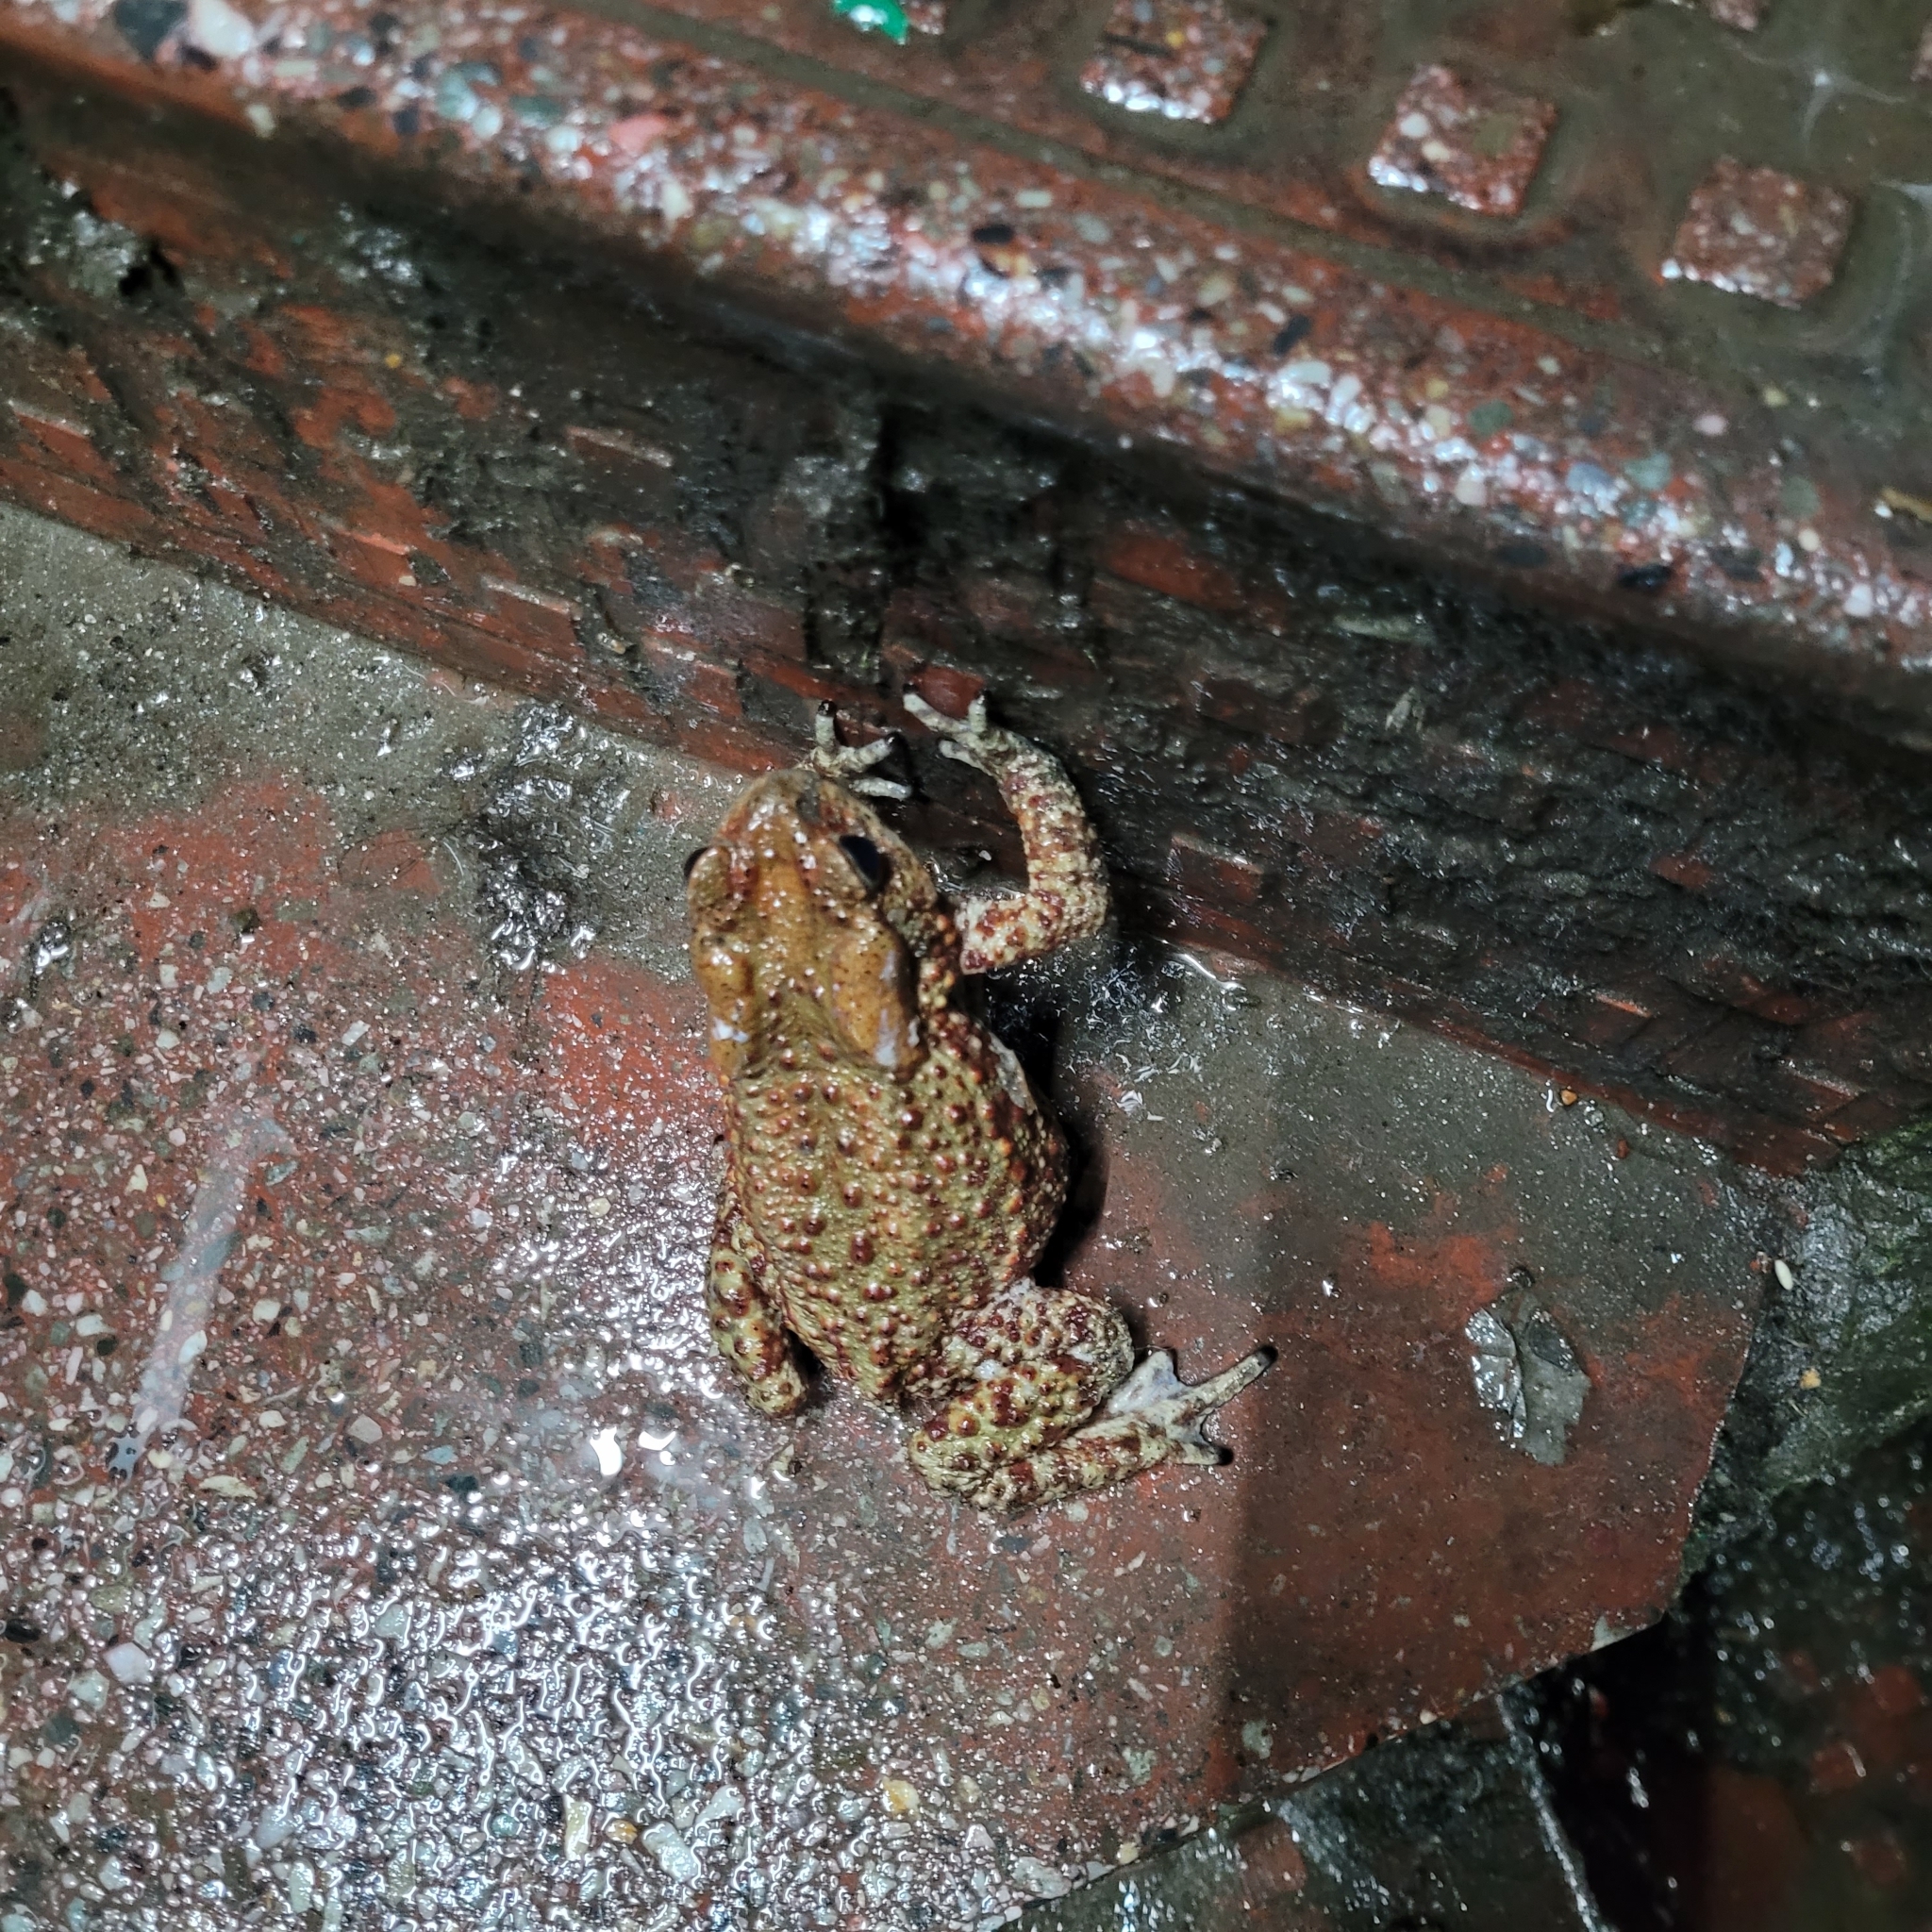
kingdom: Animalia
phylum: Chordata
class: Amphibia
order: Anura
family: Bufonidae
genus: Duttaphrynus
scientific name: Duttaphrynus melanostictus
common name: Common sunda toad
